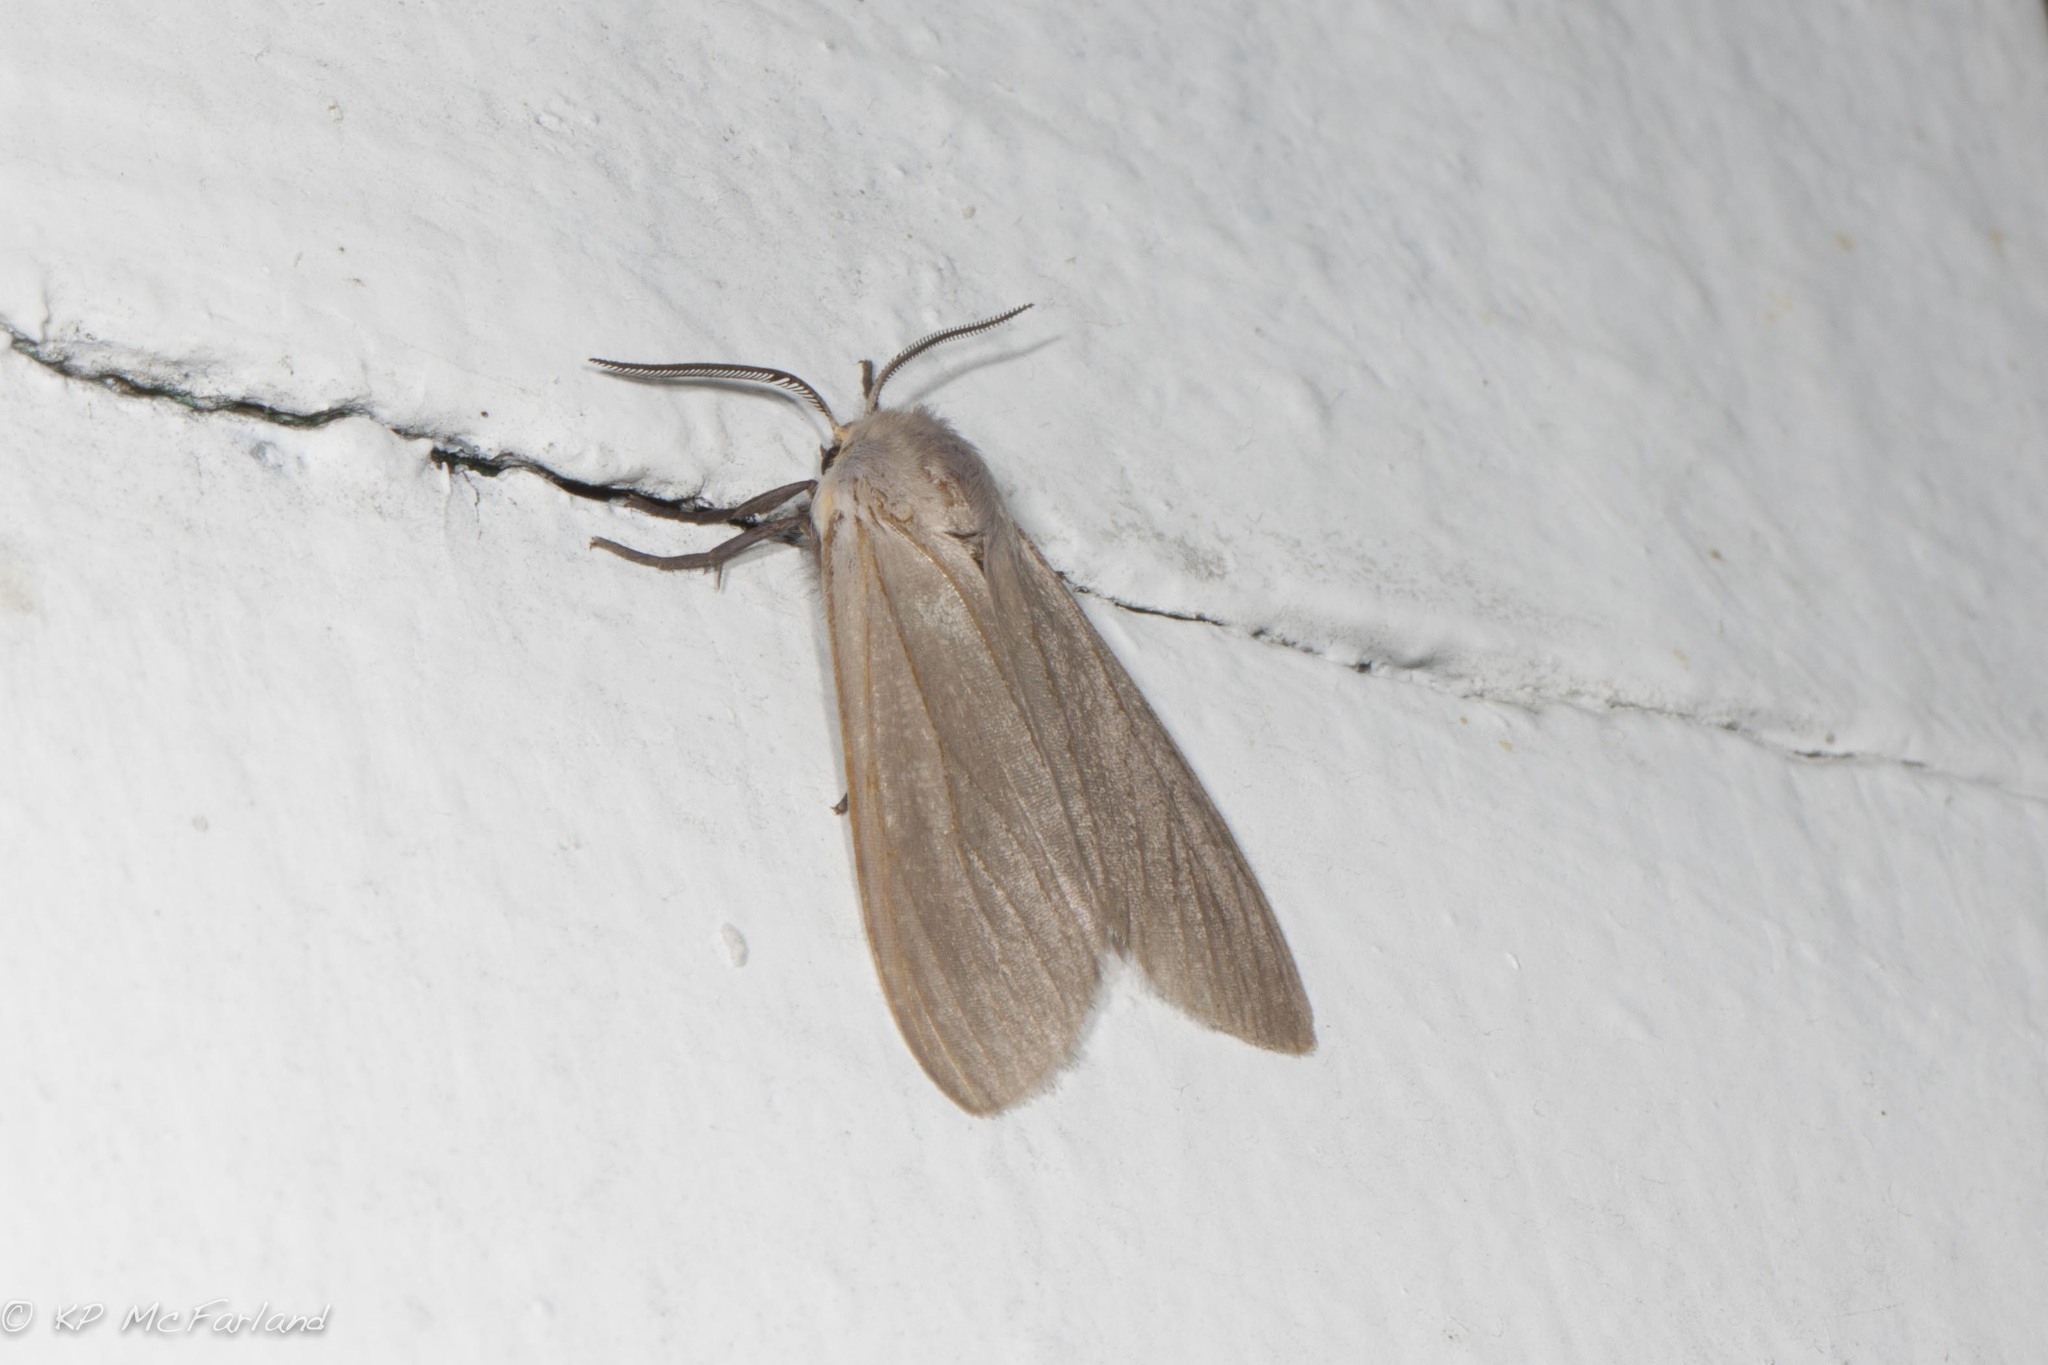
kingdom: Animalia
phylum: Arthropoda
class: Insecta
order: Lepidoptera
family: Erebidae
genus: Euchaetes
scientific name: Euchaetes egle
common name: Milkweed tussock moth
